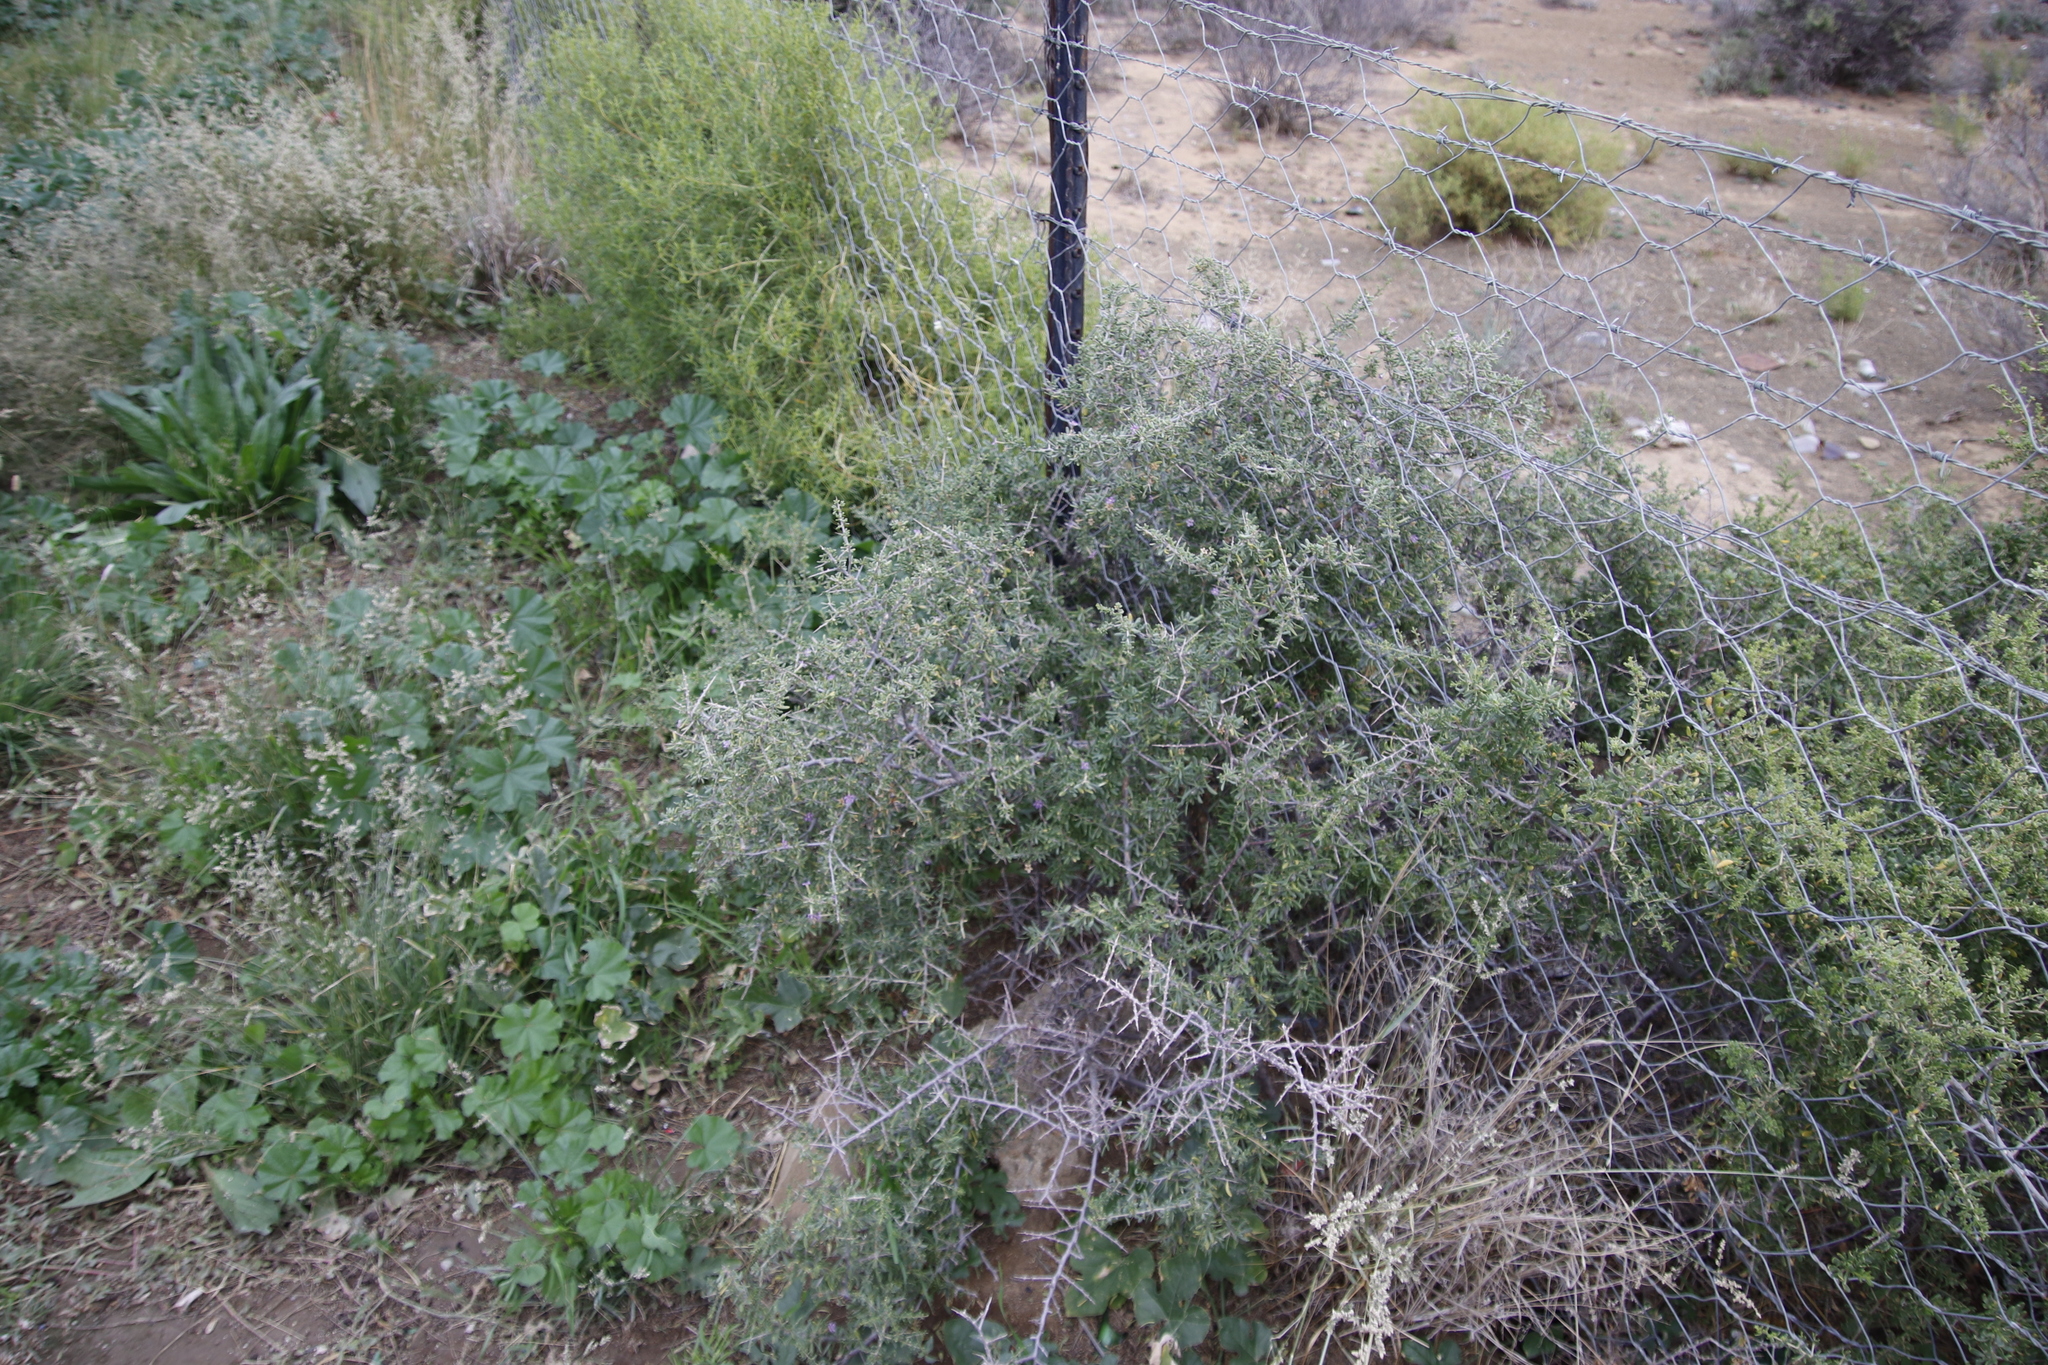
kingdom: Plantae
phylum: Tracheophyta
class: Magnoliopsida
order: Solanales
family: Solanaceae
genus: Lycium
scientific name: Lycium horridum
